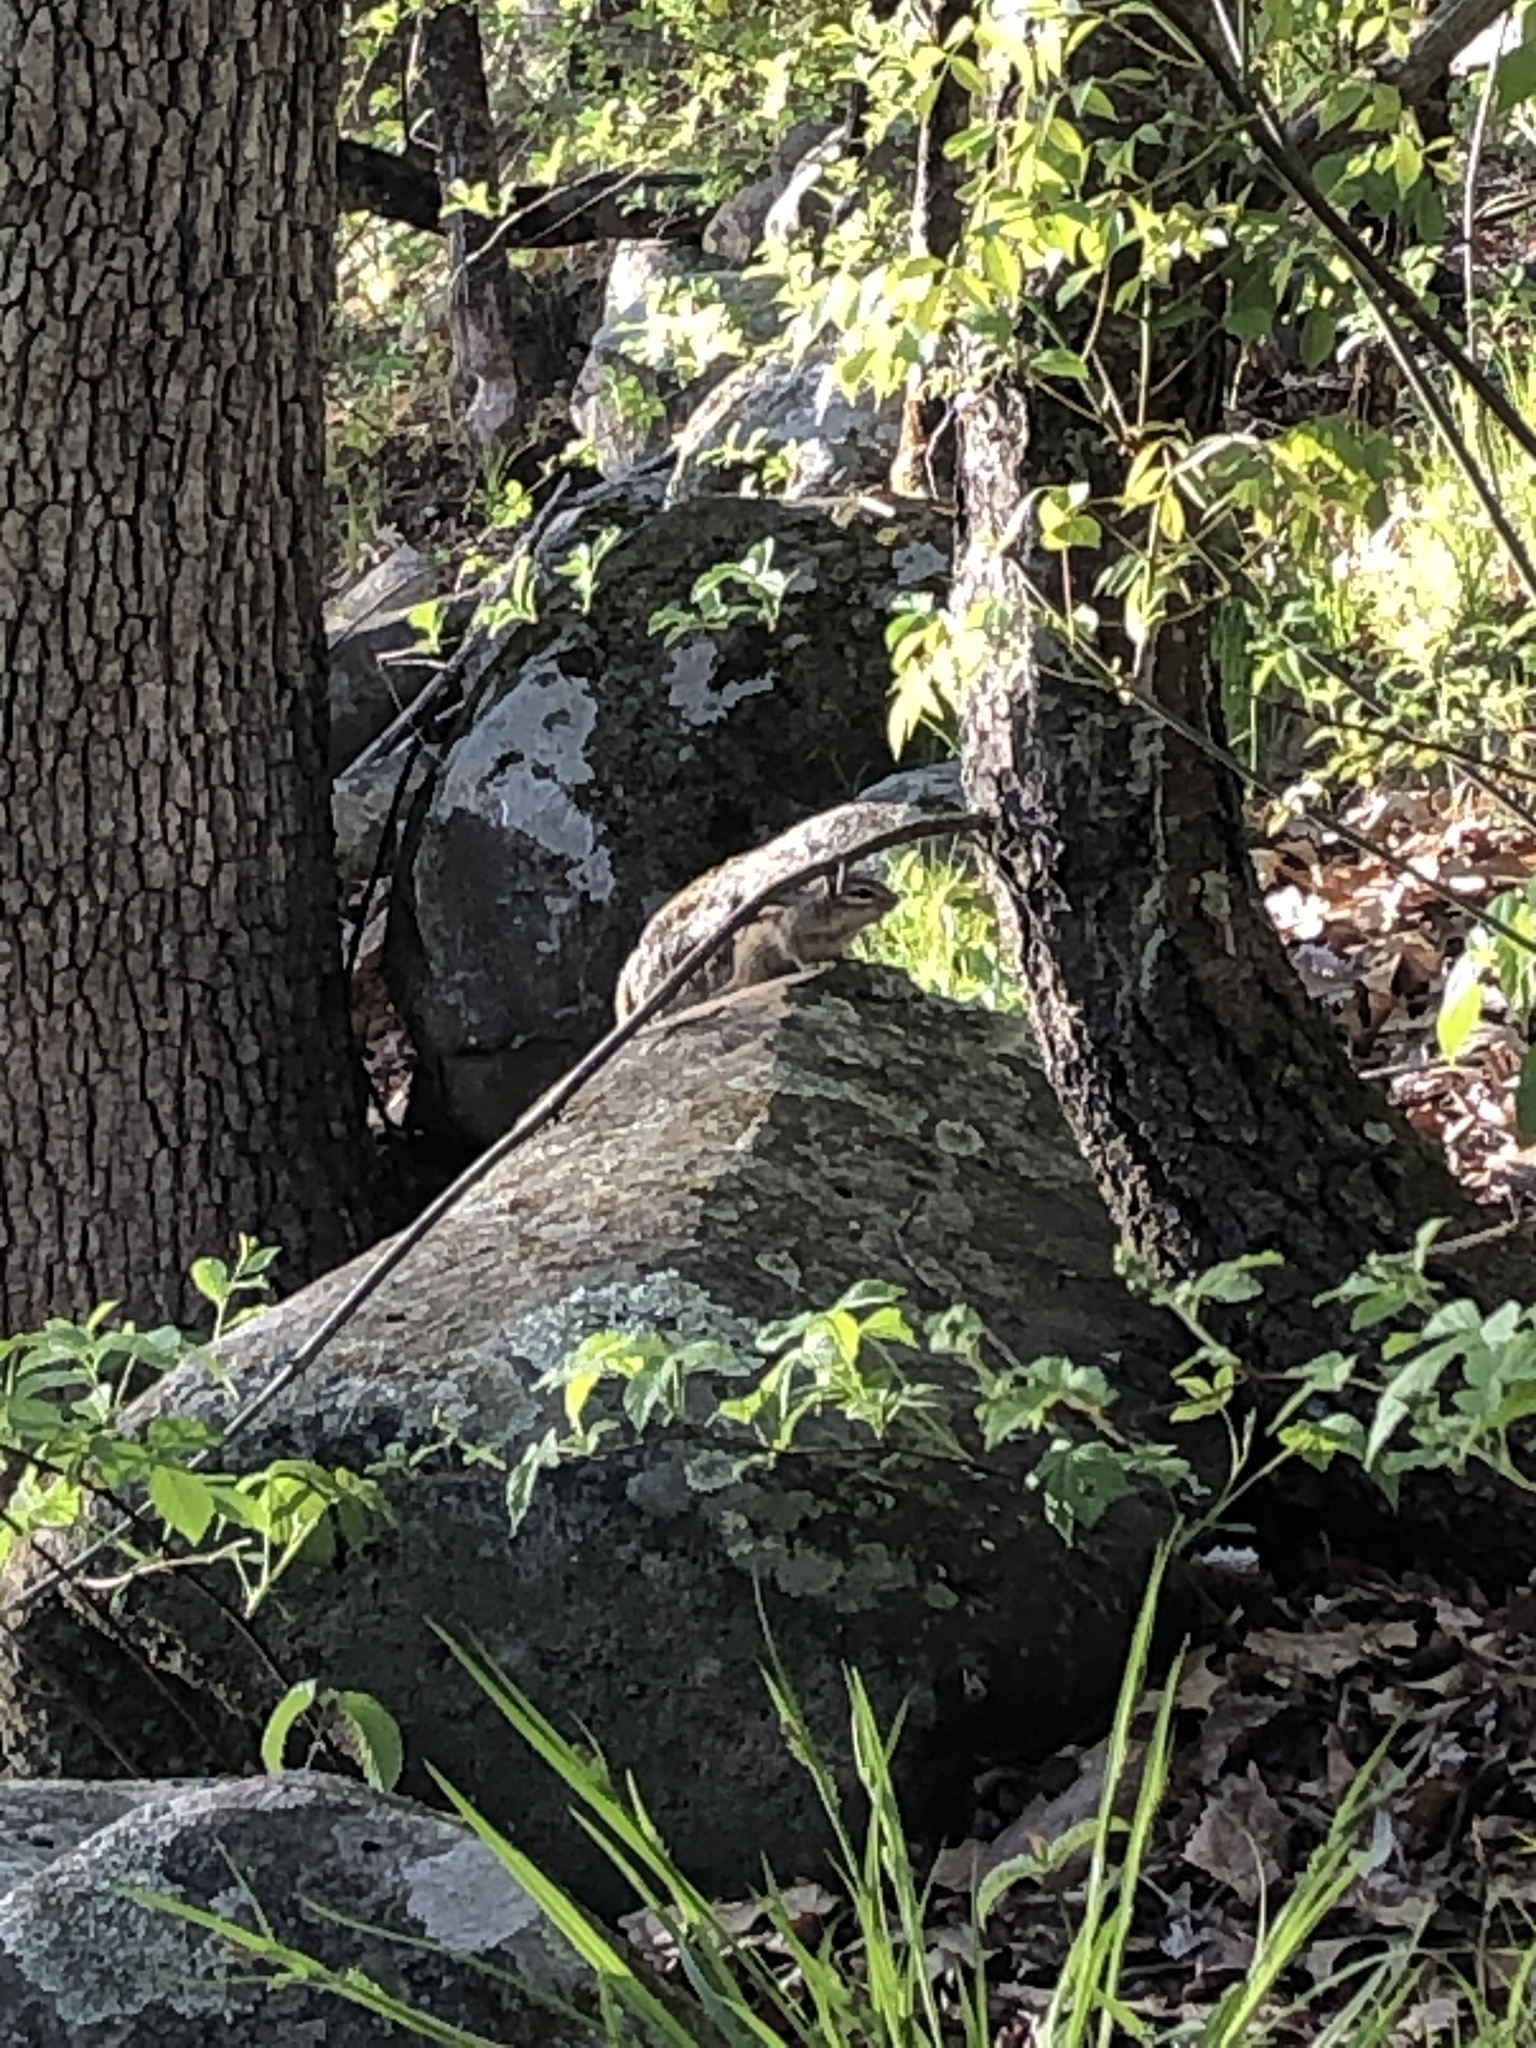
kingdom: Animalia
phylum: Chordata
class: Mammalia
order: Rodentia
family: Sciuridae
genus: Tamias
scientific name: Tamias striatus
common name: Eastern chipmunk
